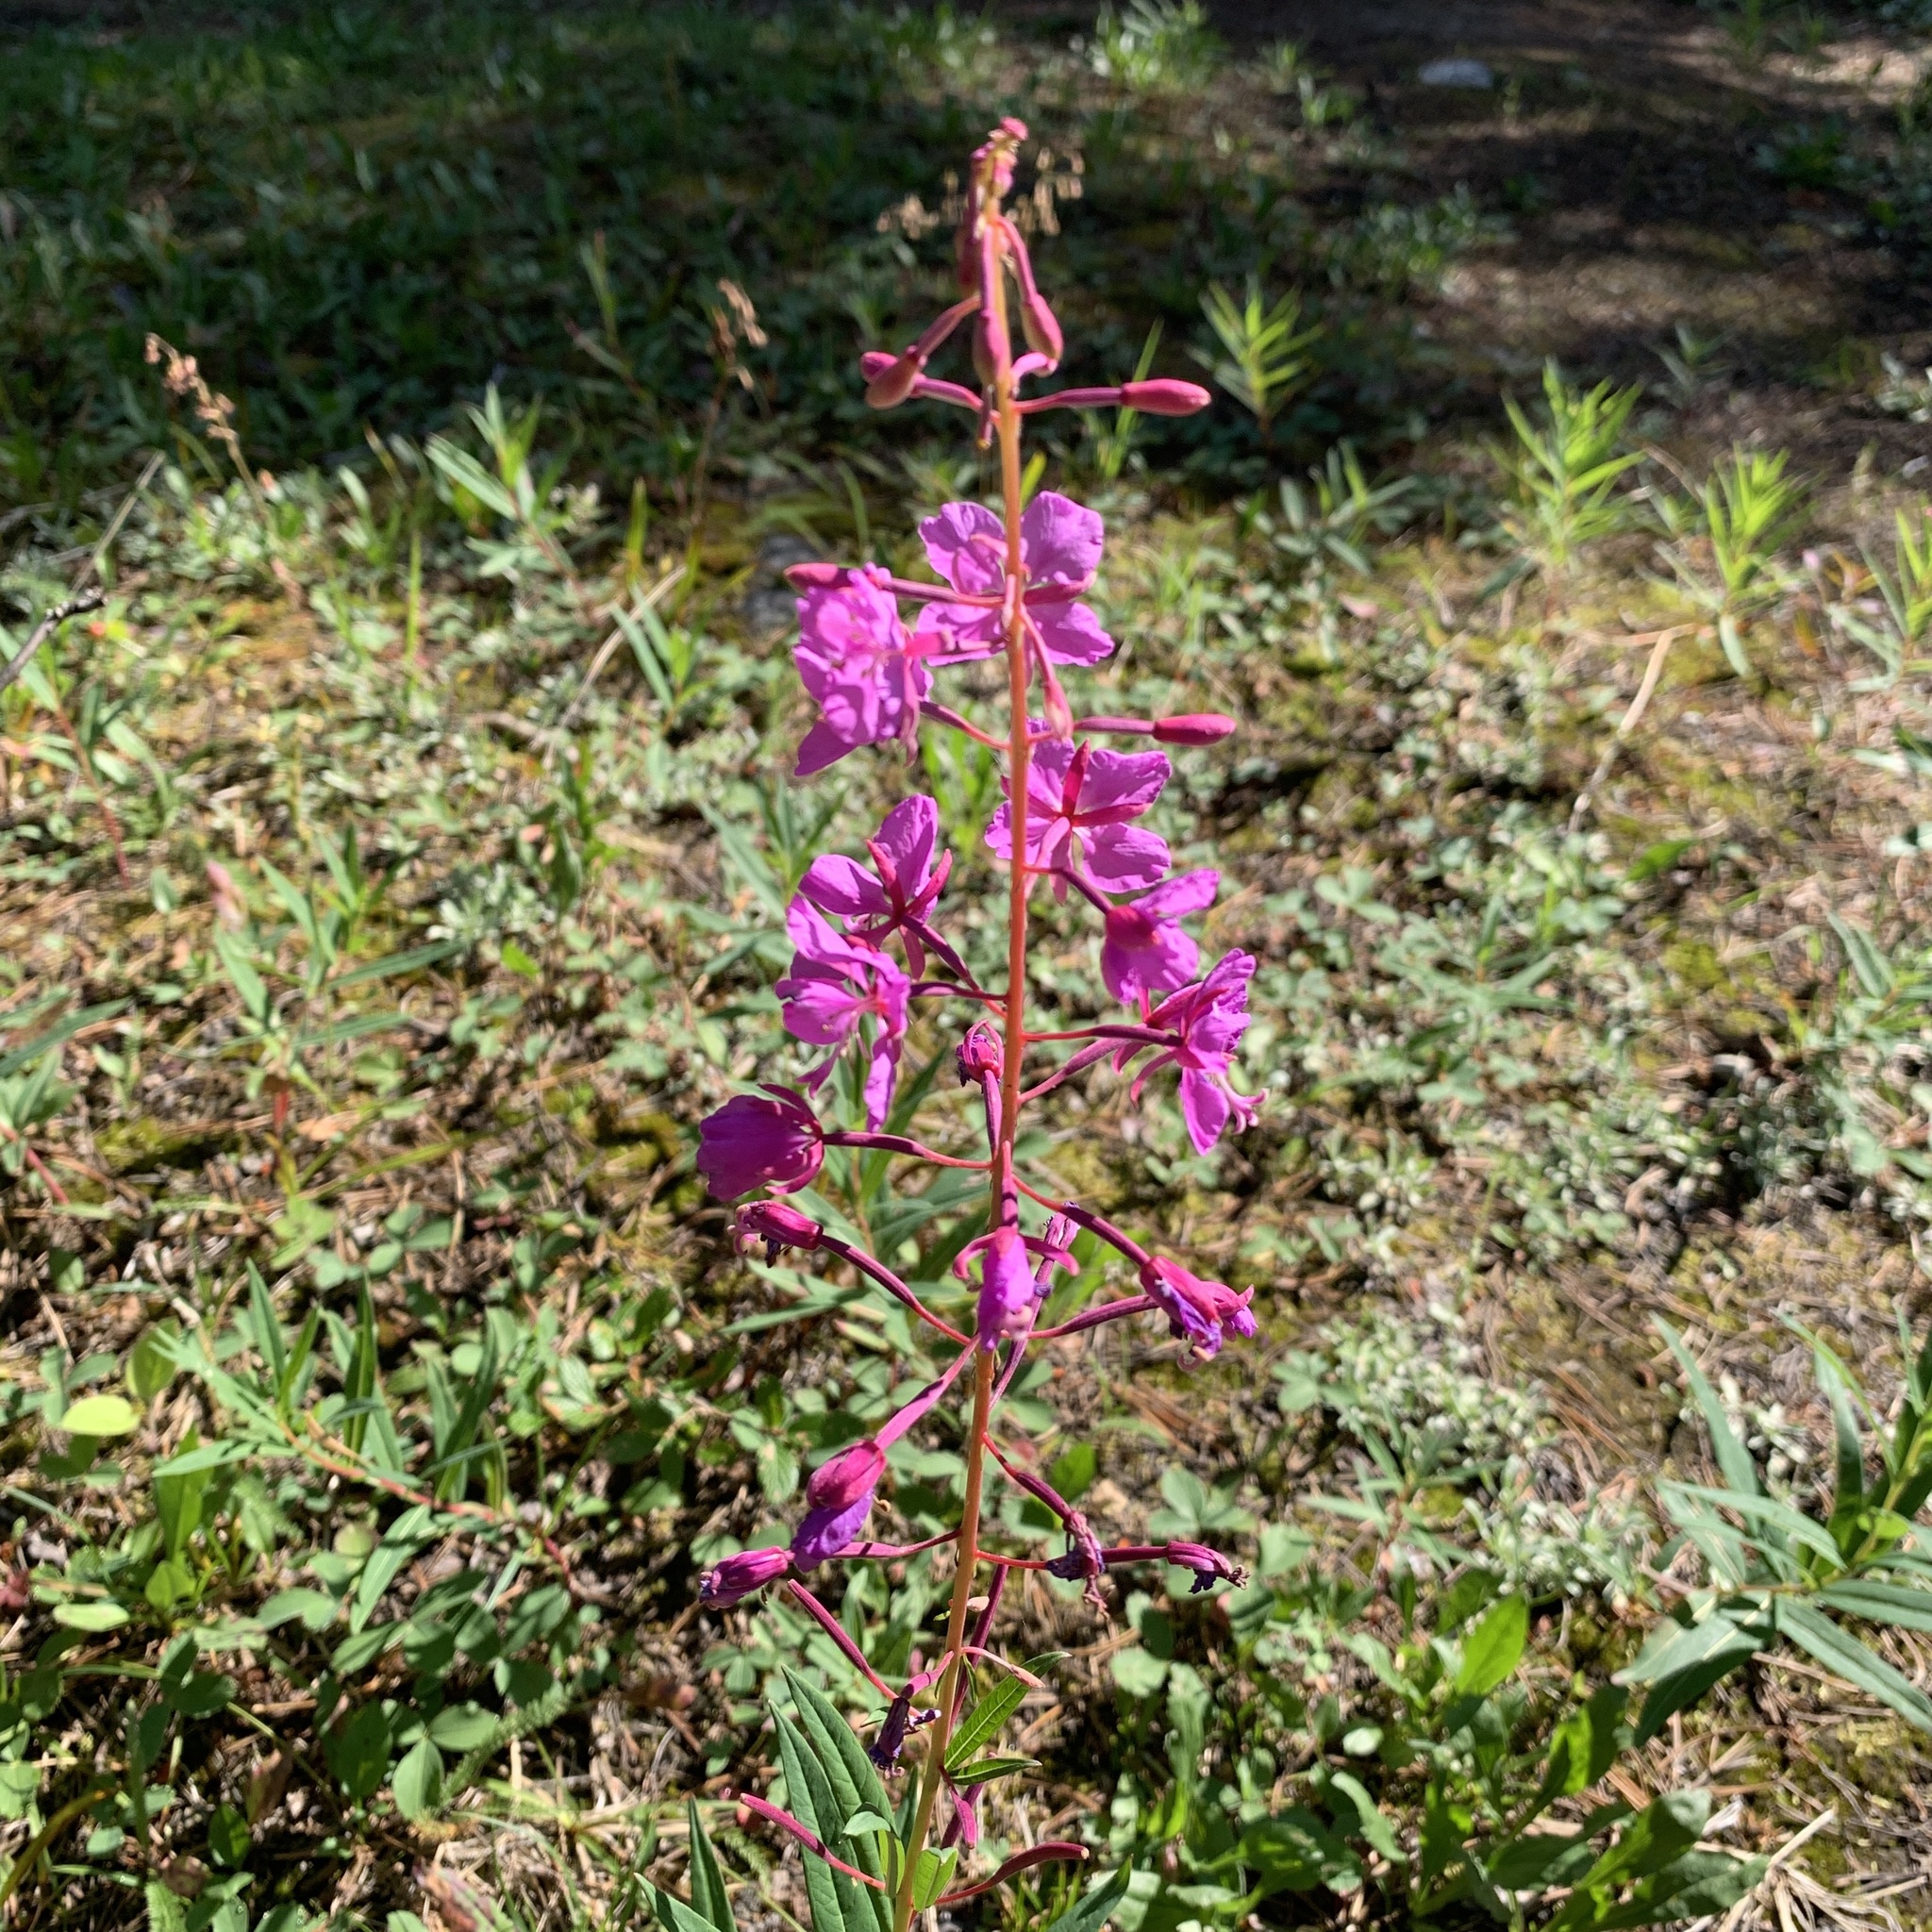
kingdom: Plantae
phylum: Tracheophyta
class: Magnoliopsida
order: Myrtales
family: Onagraceae
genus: Chamaenerion
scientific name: Chamaenerion angustifolium
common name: Fireweed
